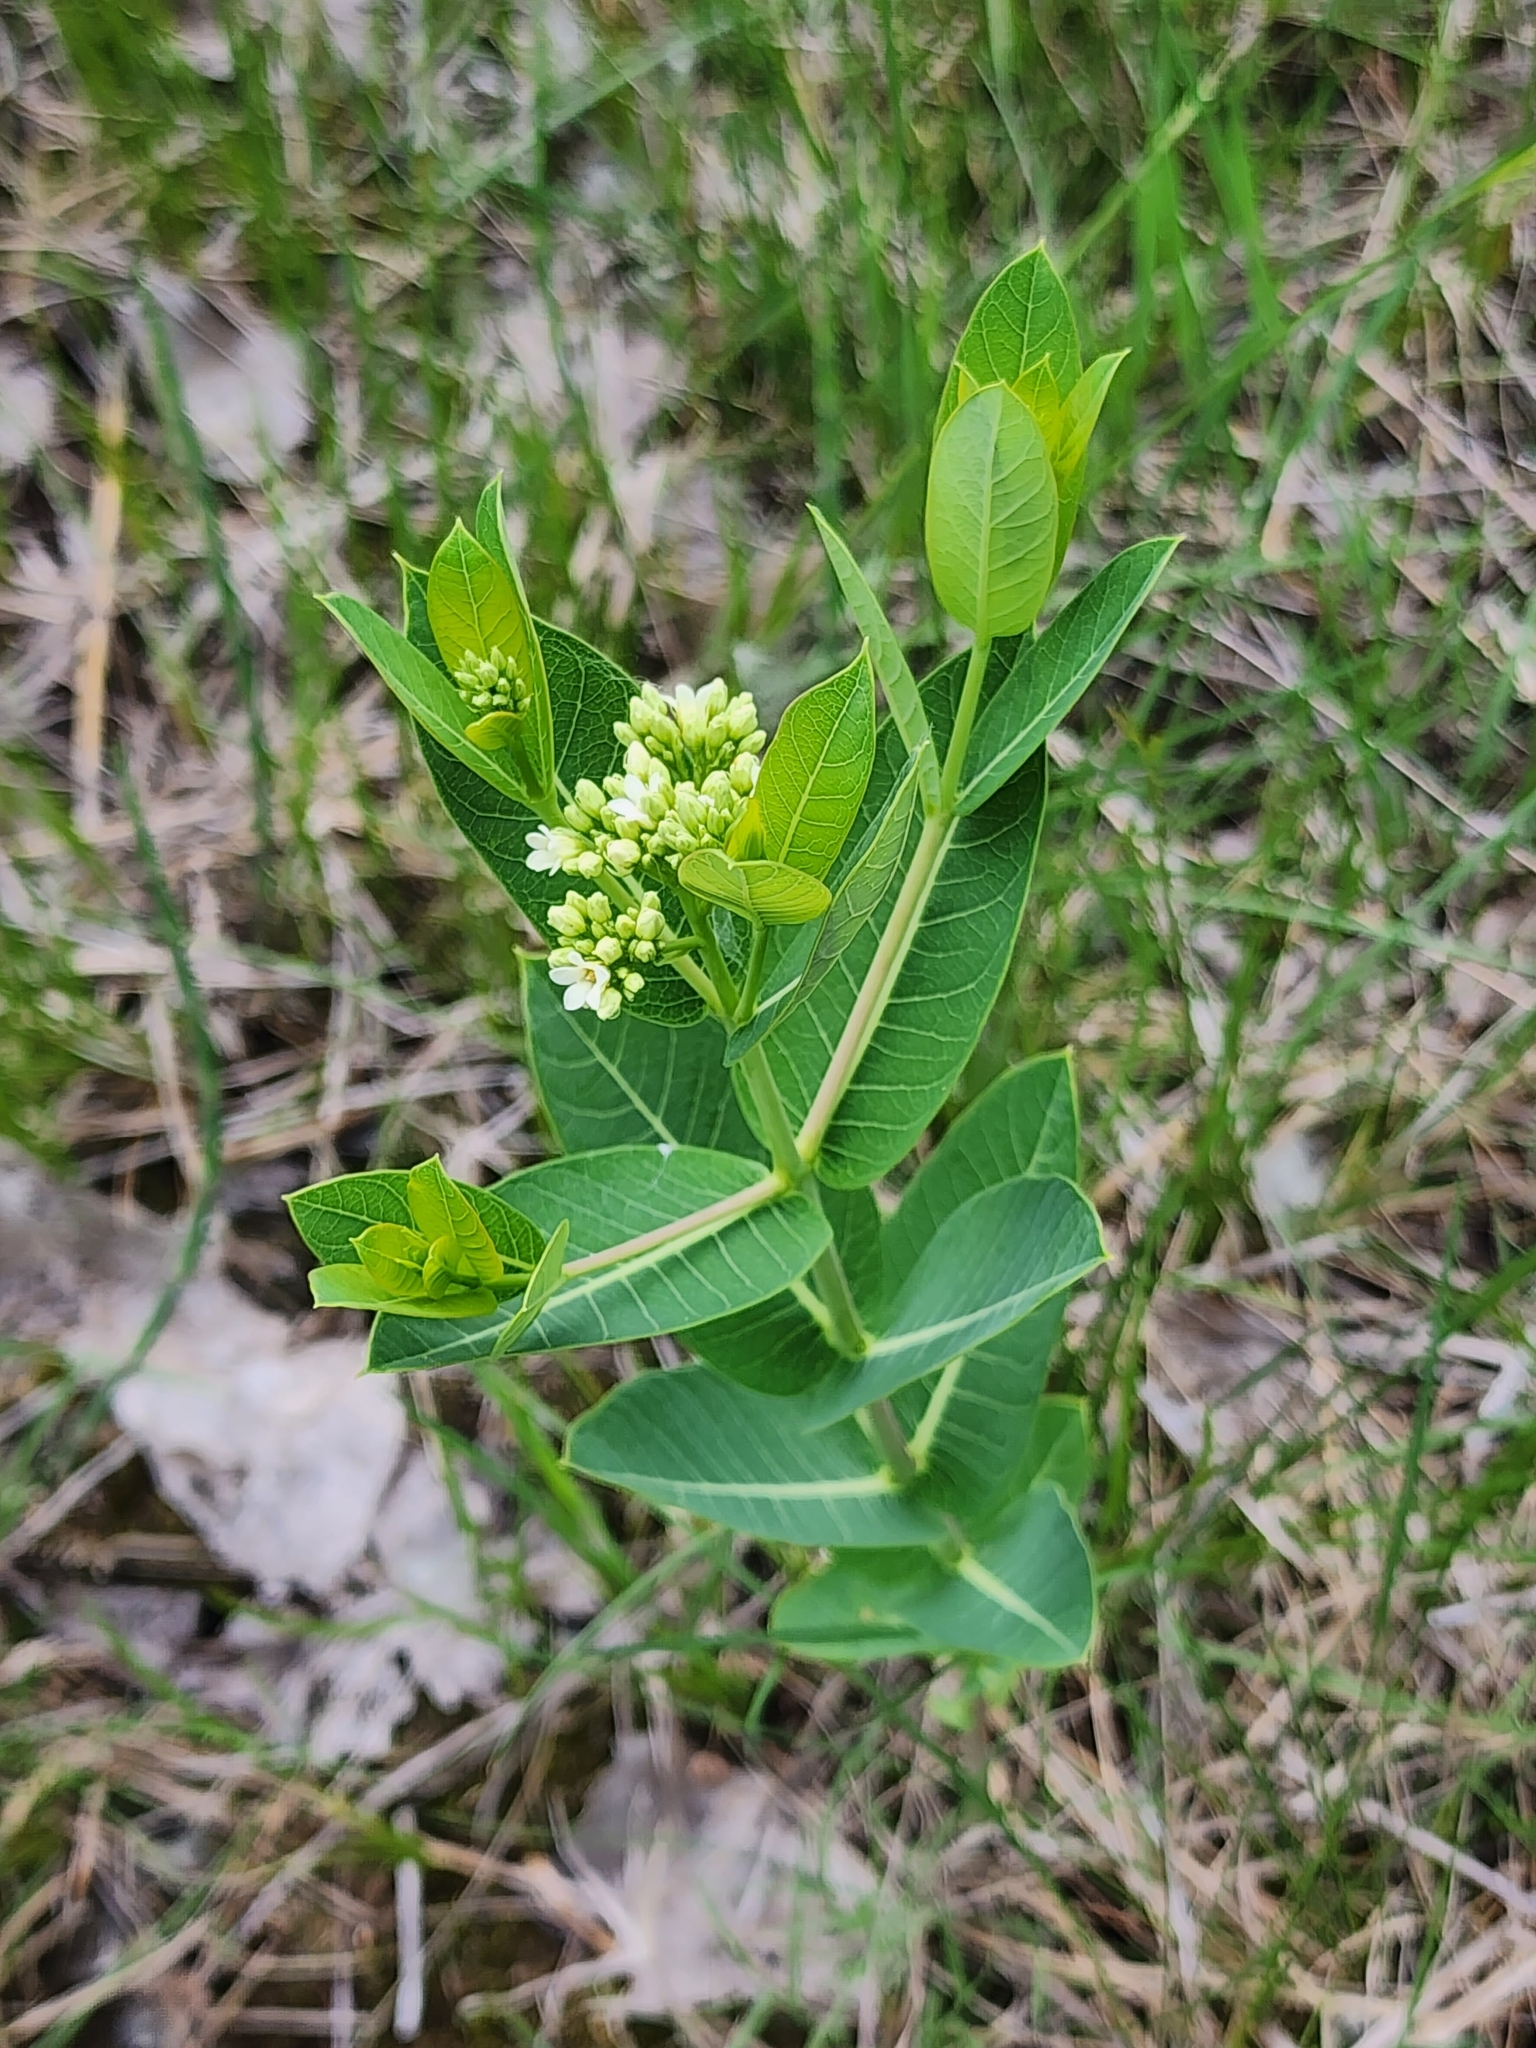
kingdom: Plantae
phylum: Tracheophyta
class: Magnoliopsida
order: Gentianales
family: Apocynaceae
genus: Apocynum
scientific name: Apocynum cannabinum
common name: Hemp dogbane
